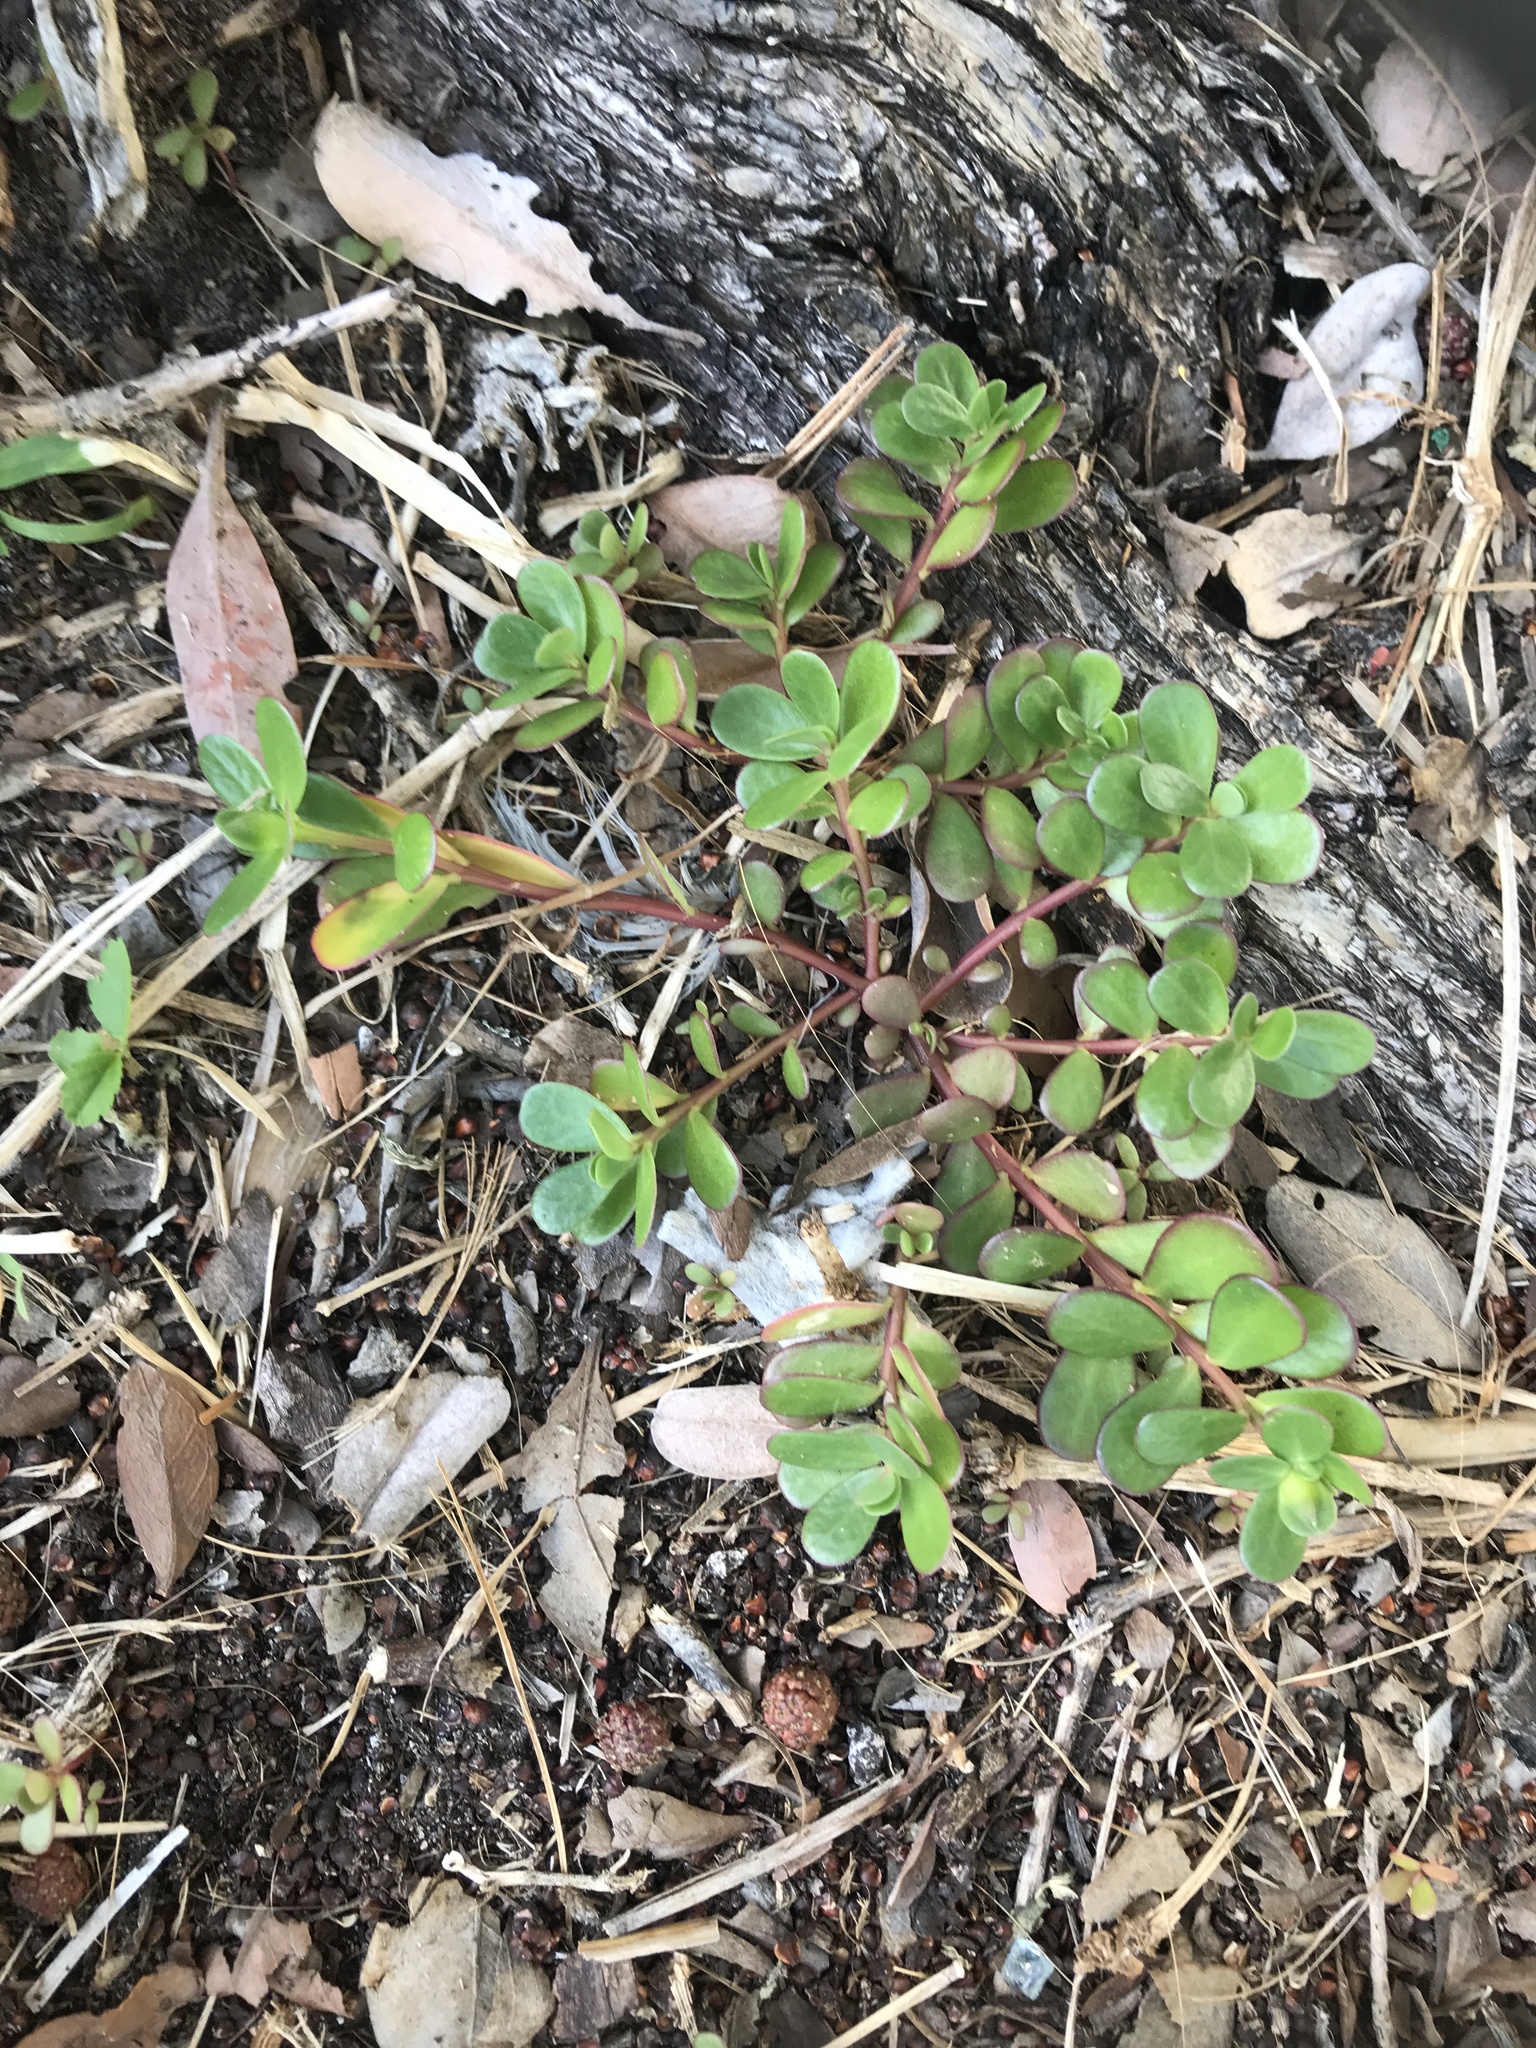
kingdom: Plantae
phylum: Tracheophyta
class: Magnoliopsida
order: Caryophyllales
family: Portulacaceae
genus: Portulaca
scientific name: Portulaca oleracea
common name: Common purslane
